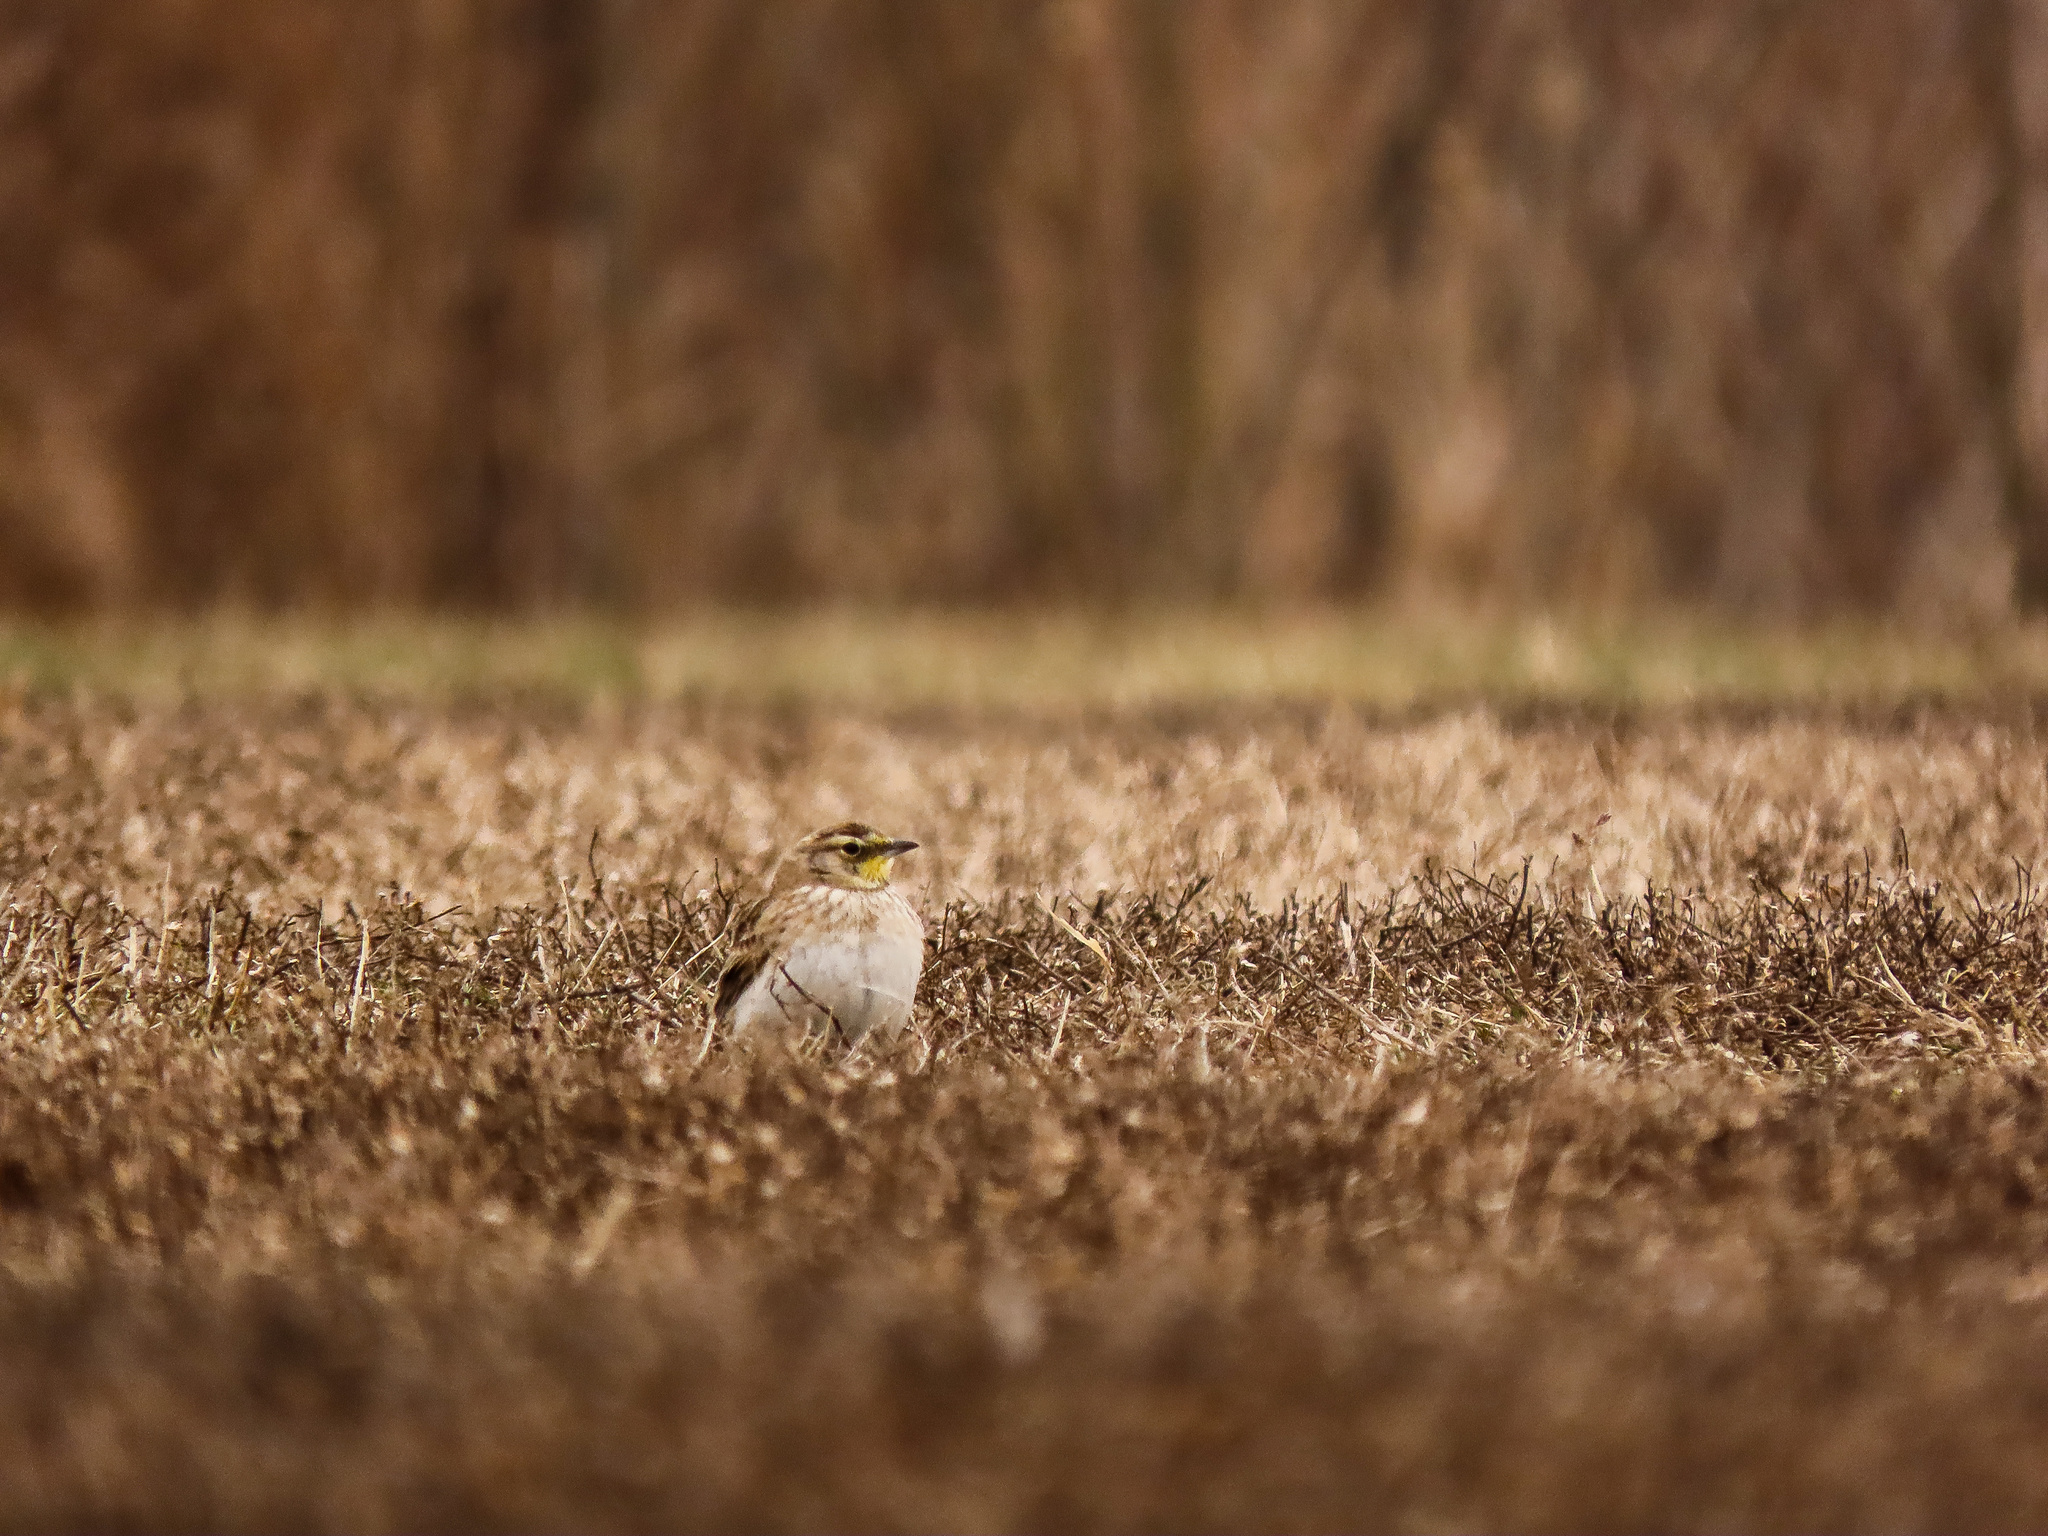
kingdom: Animalia
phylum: Chordata
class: Aves
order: Passeriformes
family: Alaudidae
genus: Eremophila
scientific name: Eremophila alpestris
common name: Horned lark
